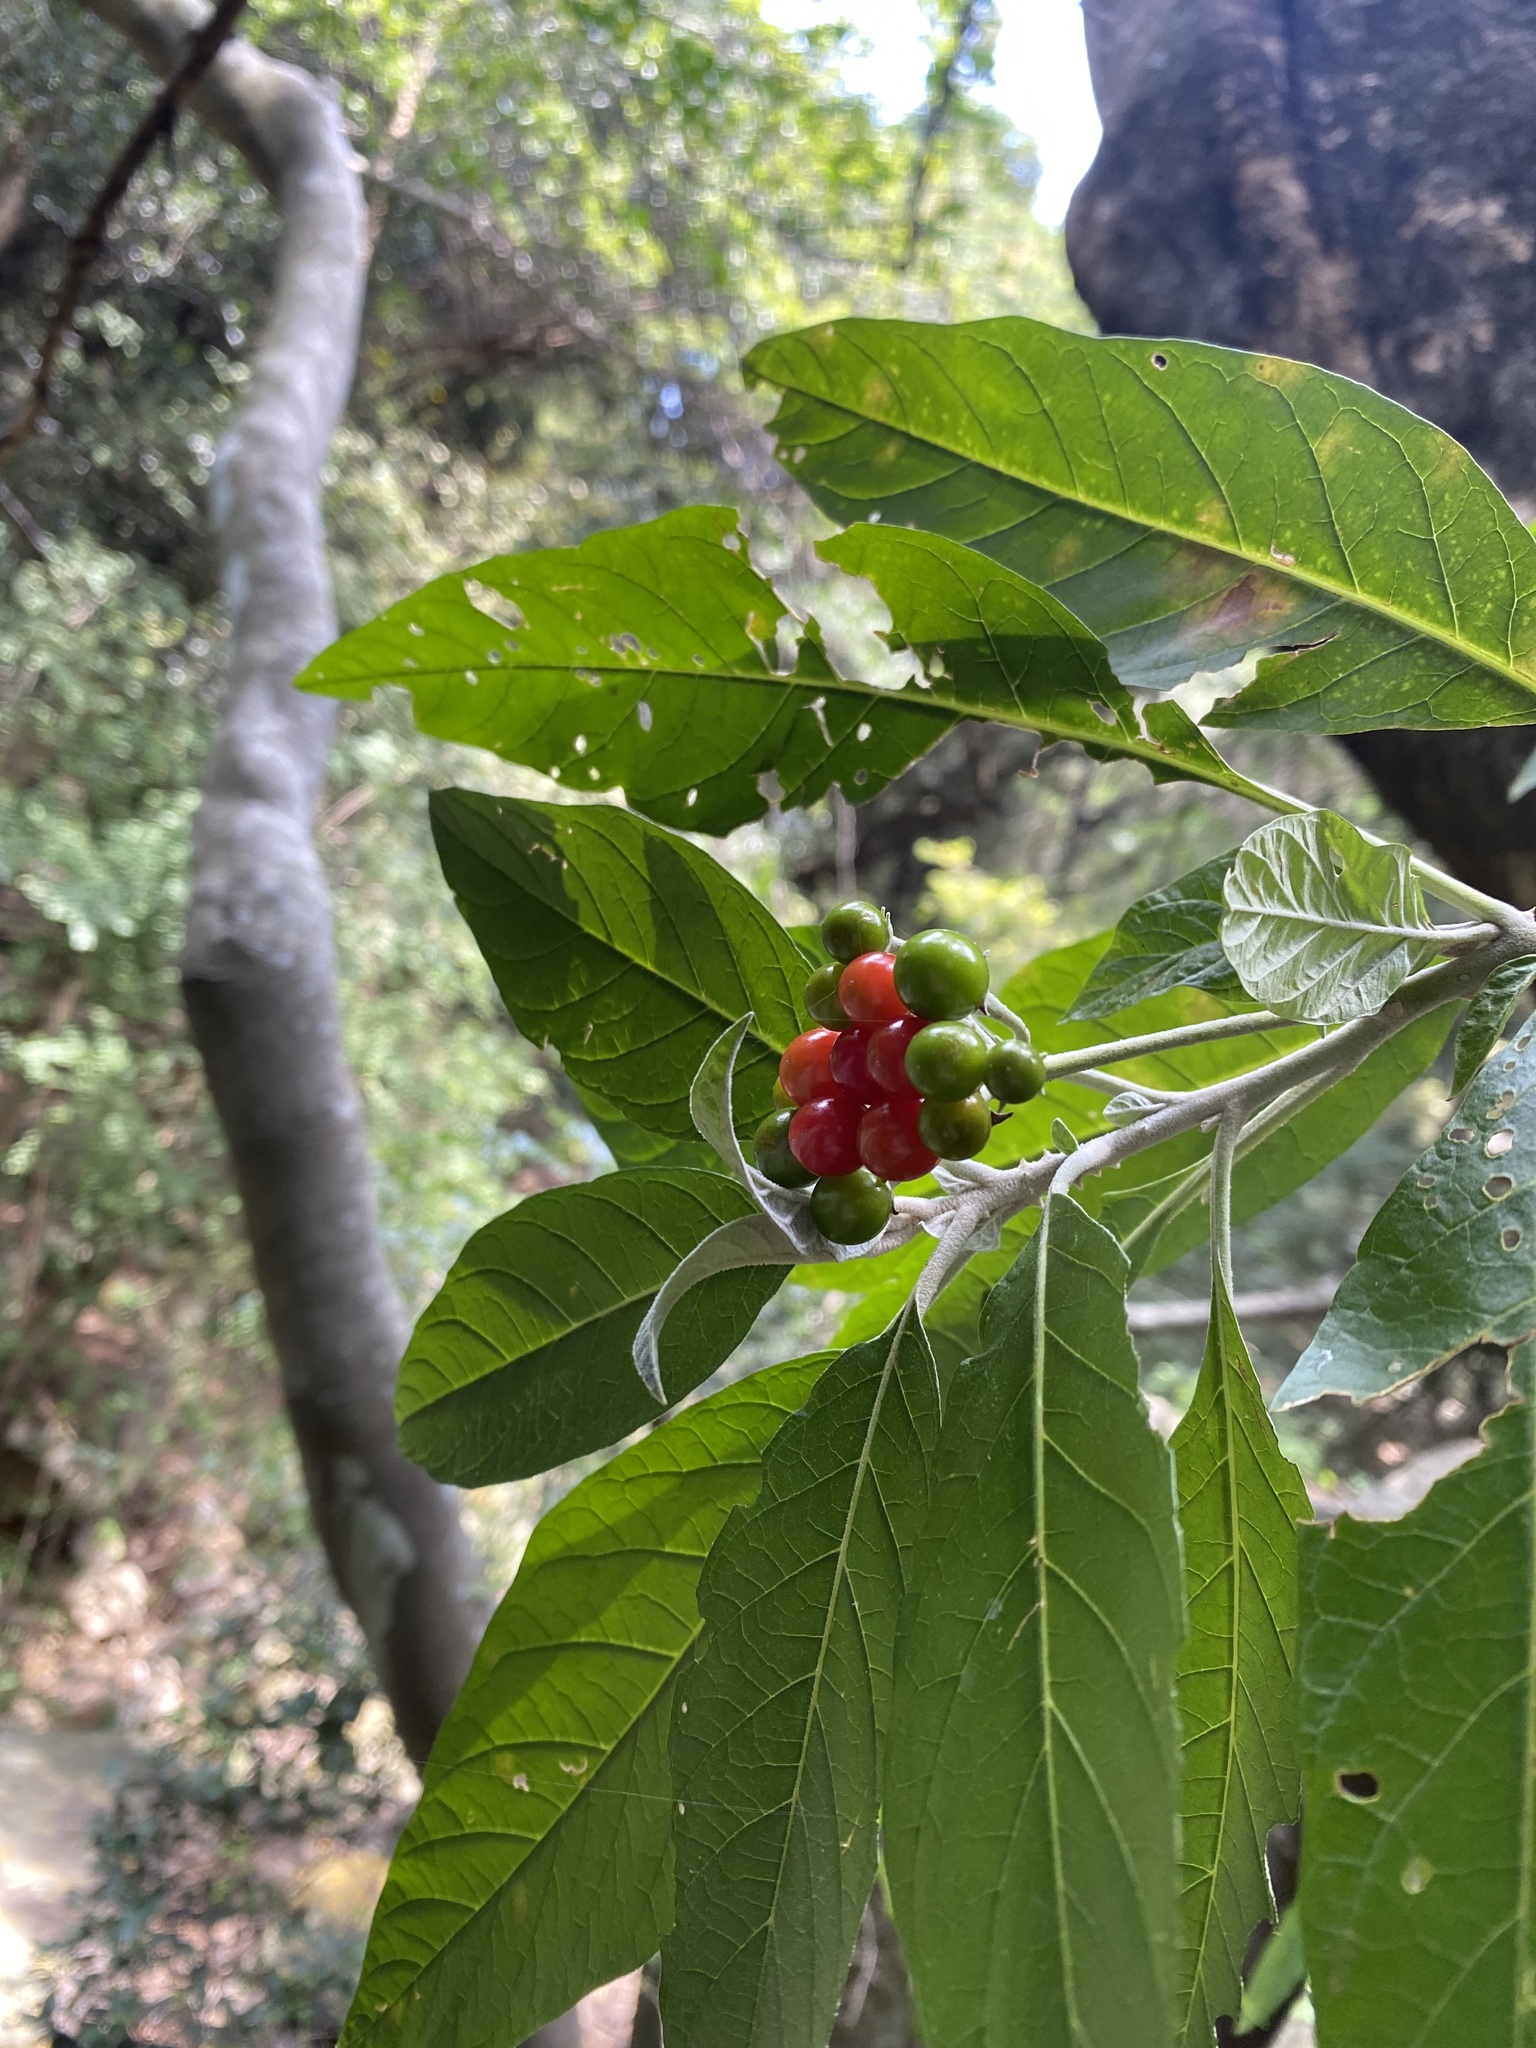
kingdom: Plantae
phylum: Tracheophyta
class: Magnoliopsida
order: Solanales
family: Solanaceae
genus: Solanum
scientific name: Solanum giganteum
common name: Healing-leaf-tree
